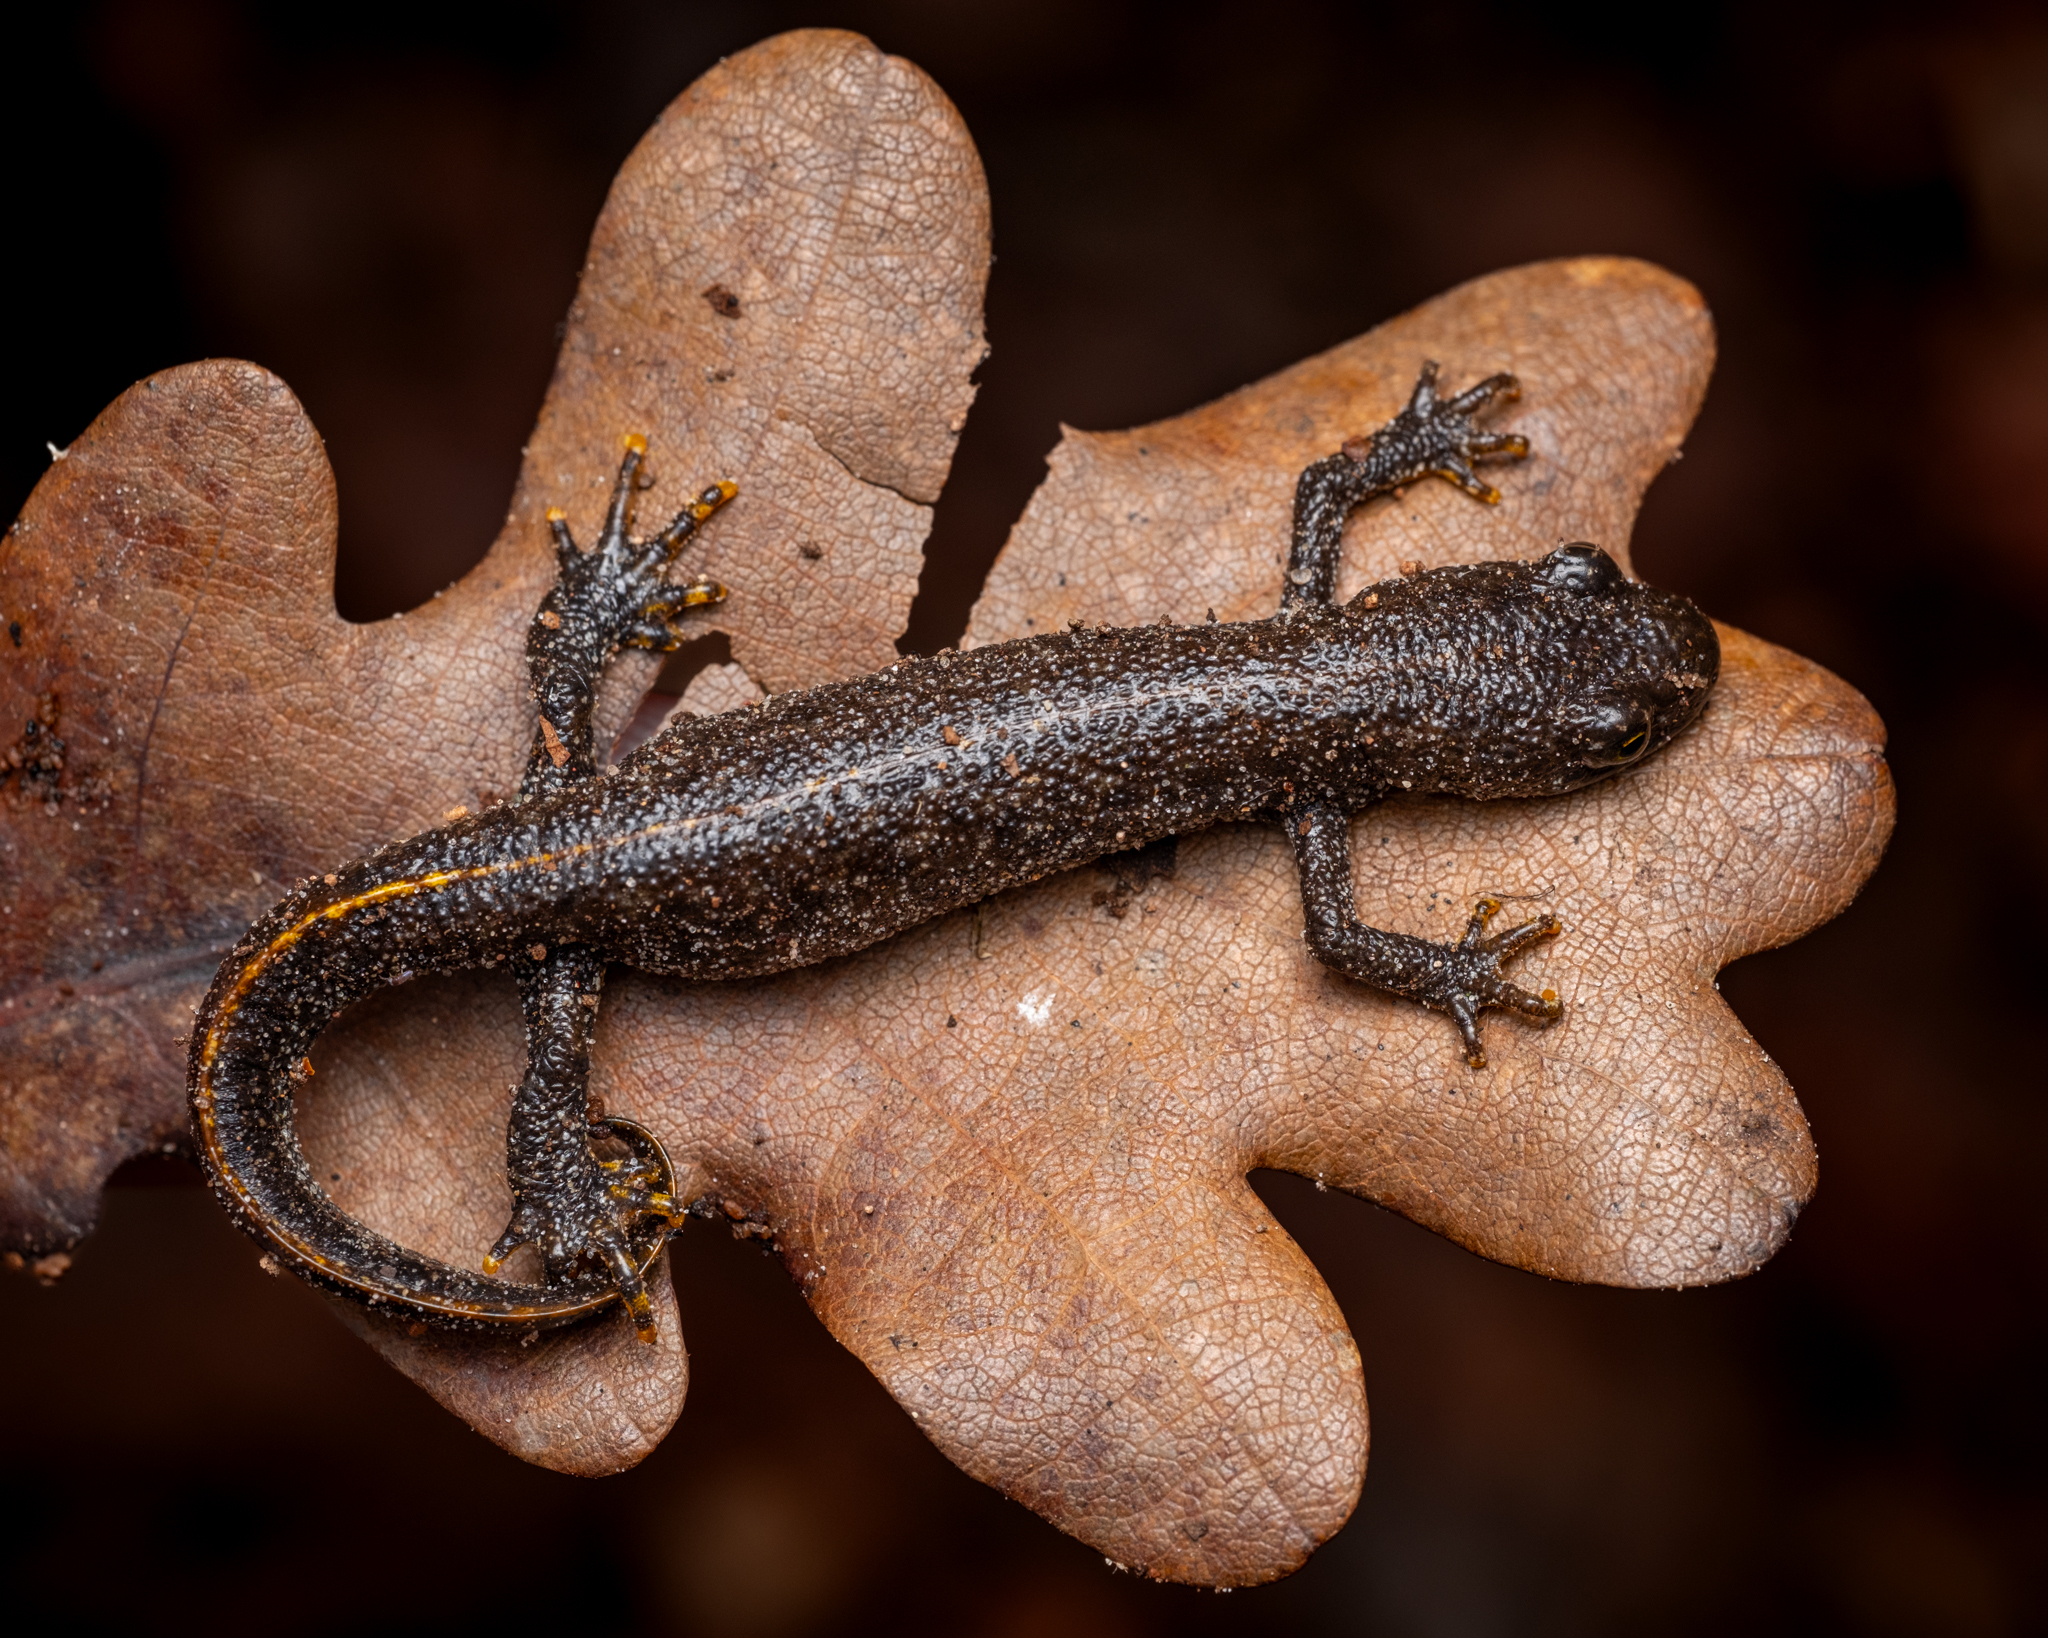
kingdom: Animalia
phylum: Chordata
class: Amphibia
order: Caudata
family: Salamandridae
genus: Triturus
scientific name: Triturus cristatus
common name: Crested newt
